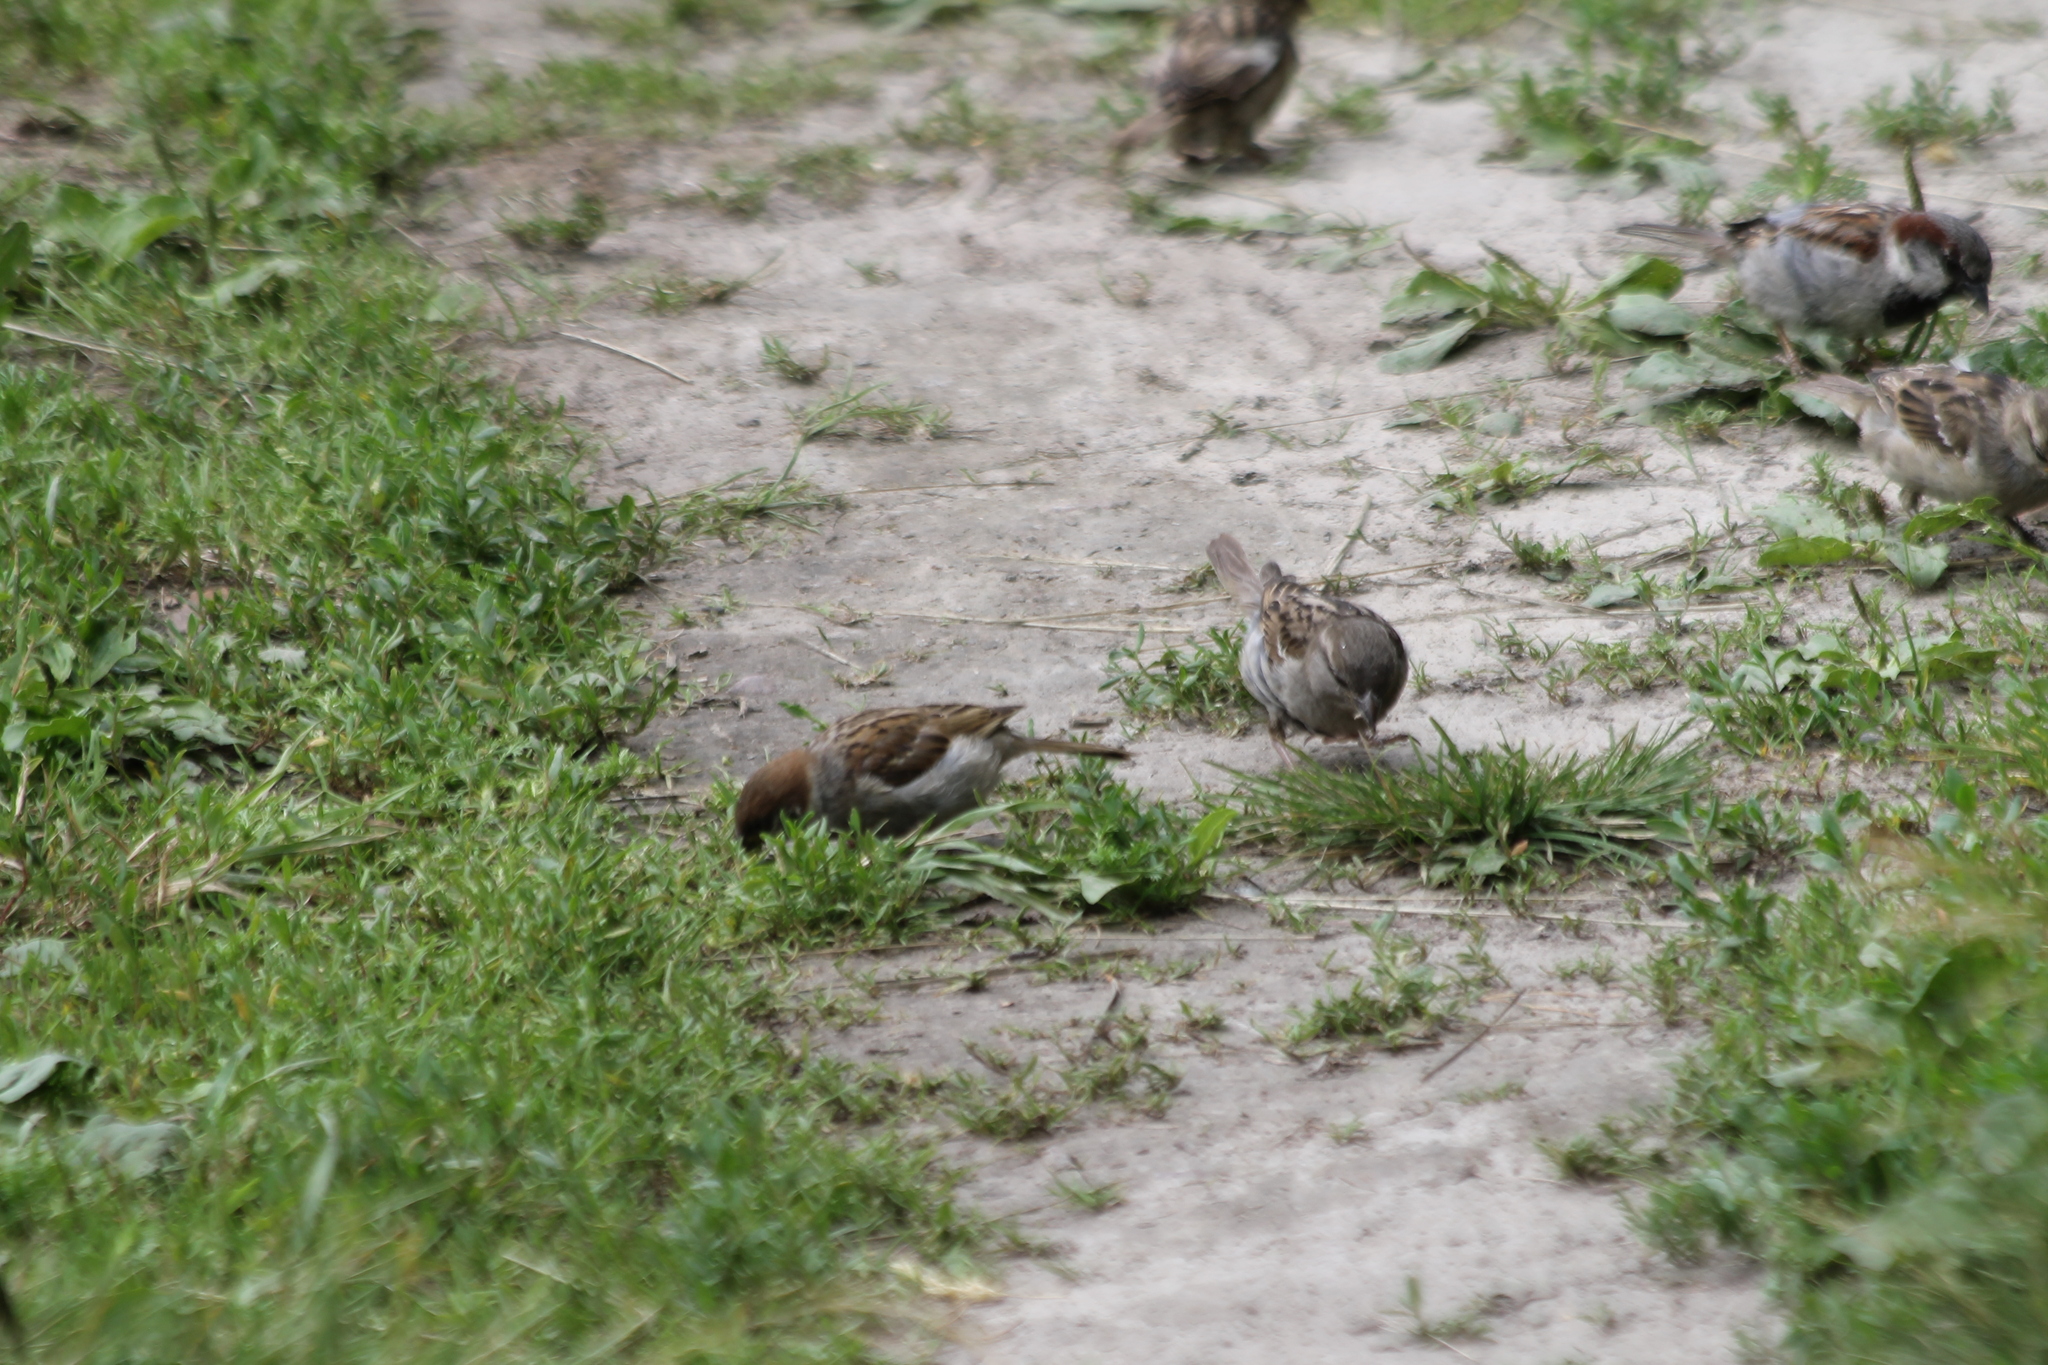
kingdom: Animalia
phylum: Chordata
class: Aves
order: Passeriformes
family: Passeridae
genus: Passer
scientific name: Passer montanus
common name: Eurasian tree sparrow
